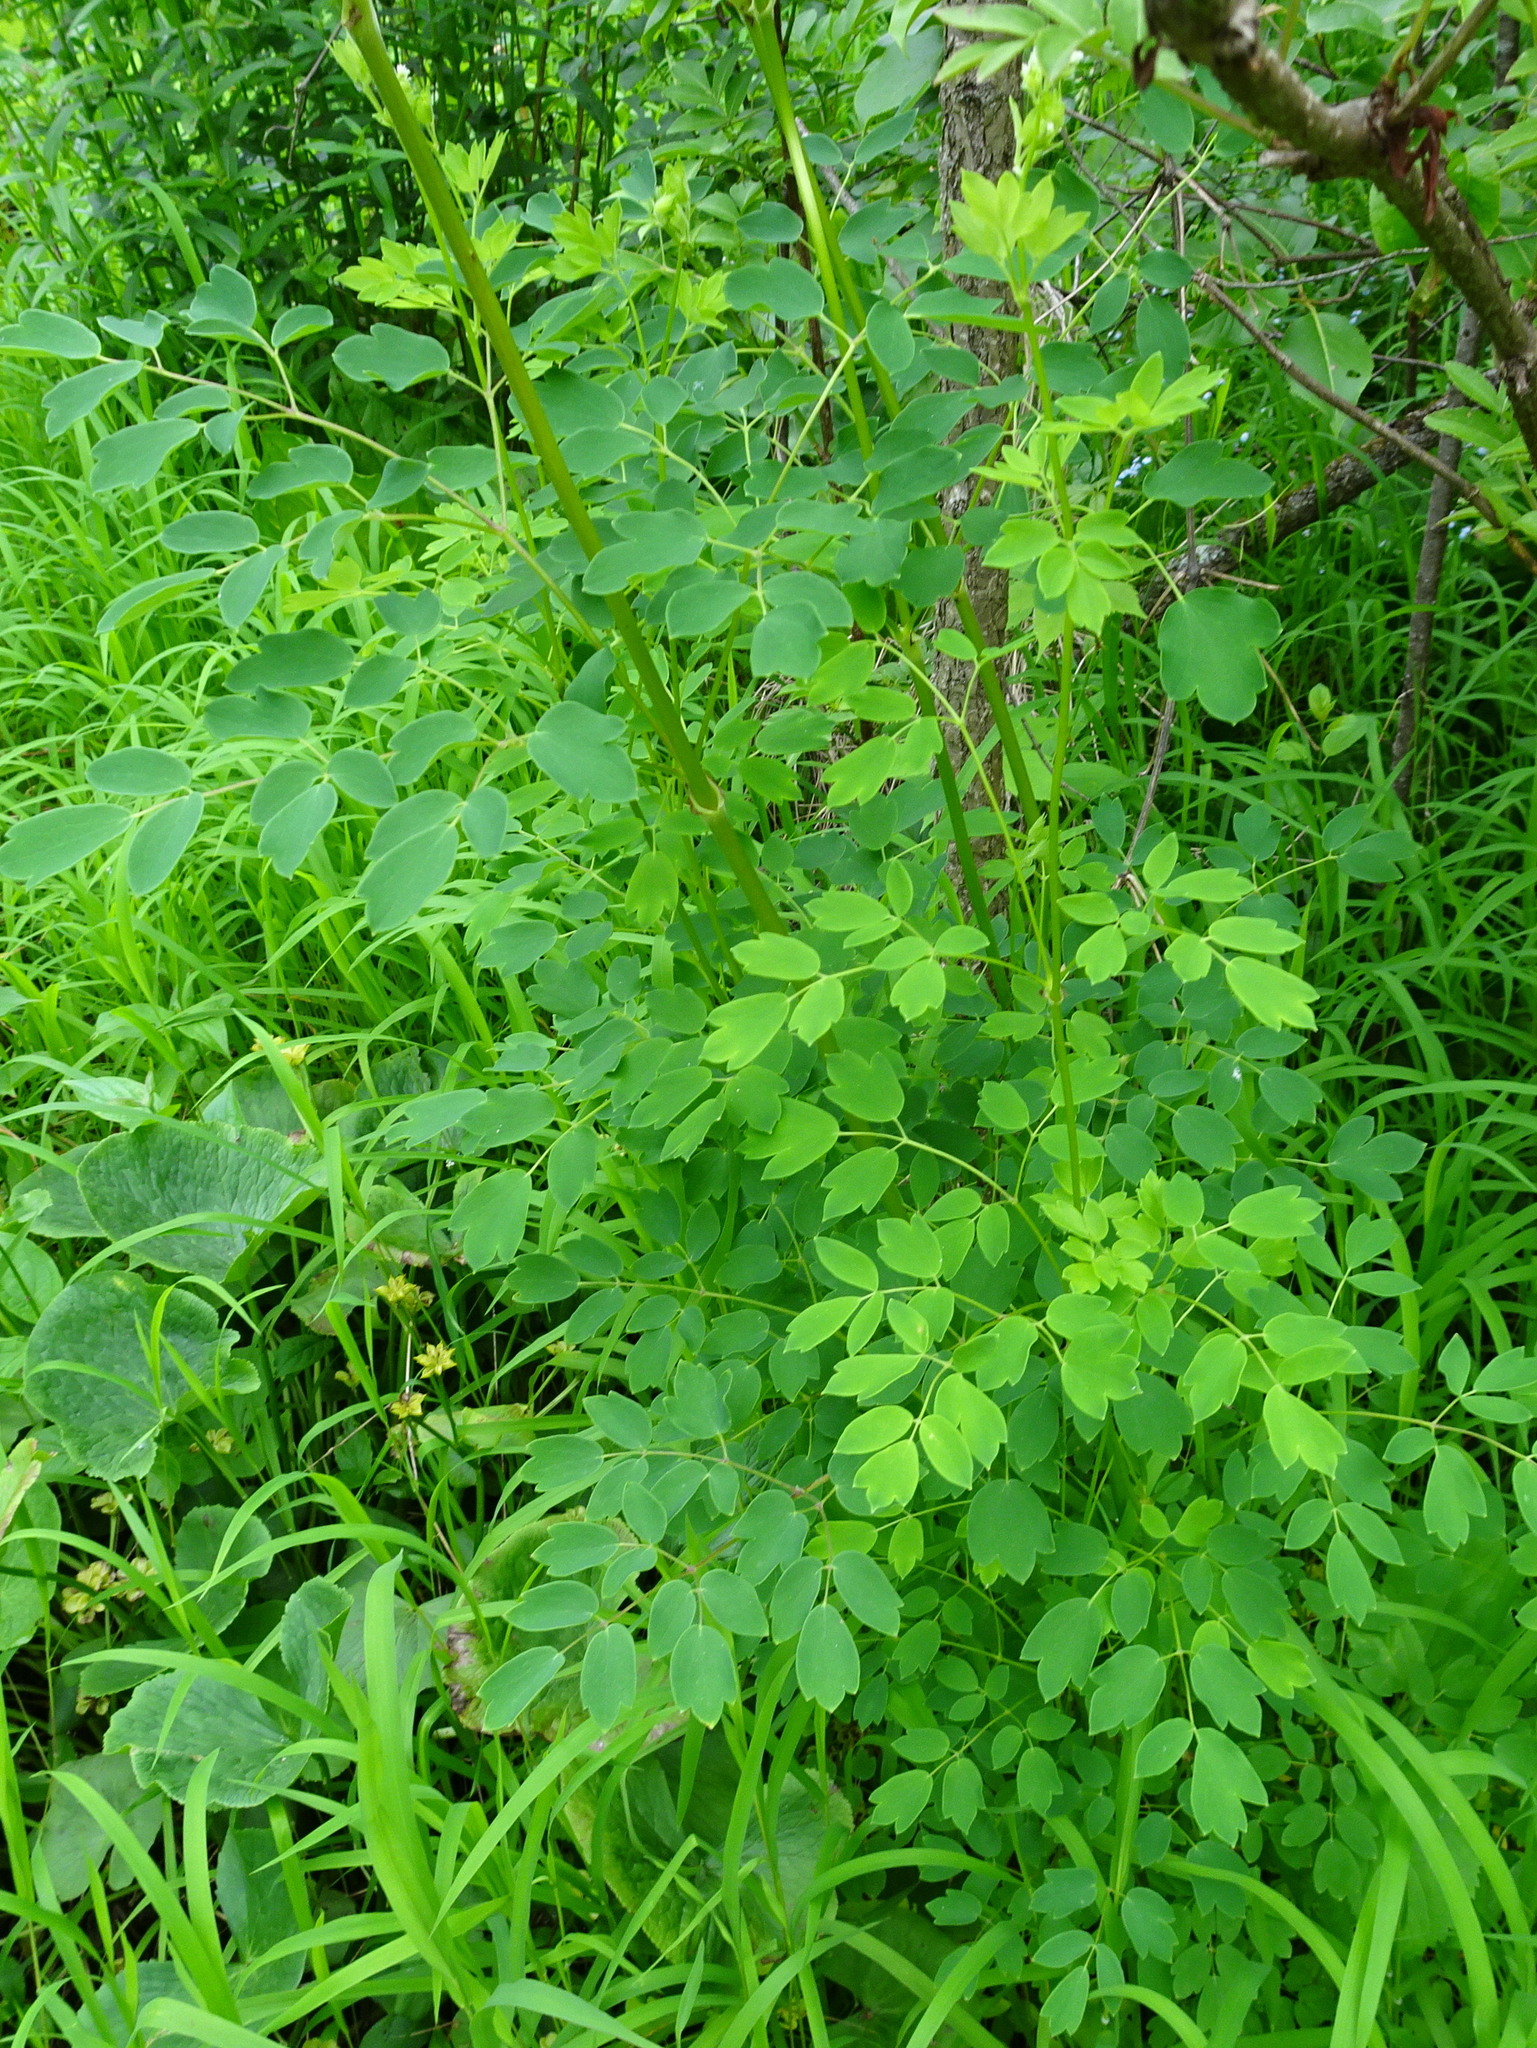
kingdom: Plantae
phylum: Tracheophyta
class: Magnoliopsida
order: Ranunculales
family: Ranunculaceae
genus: Thalictrum
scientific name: Thalictrum dasycarpum
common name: Purple meadow-rue
